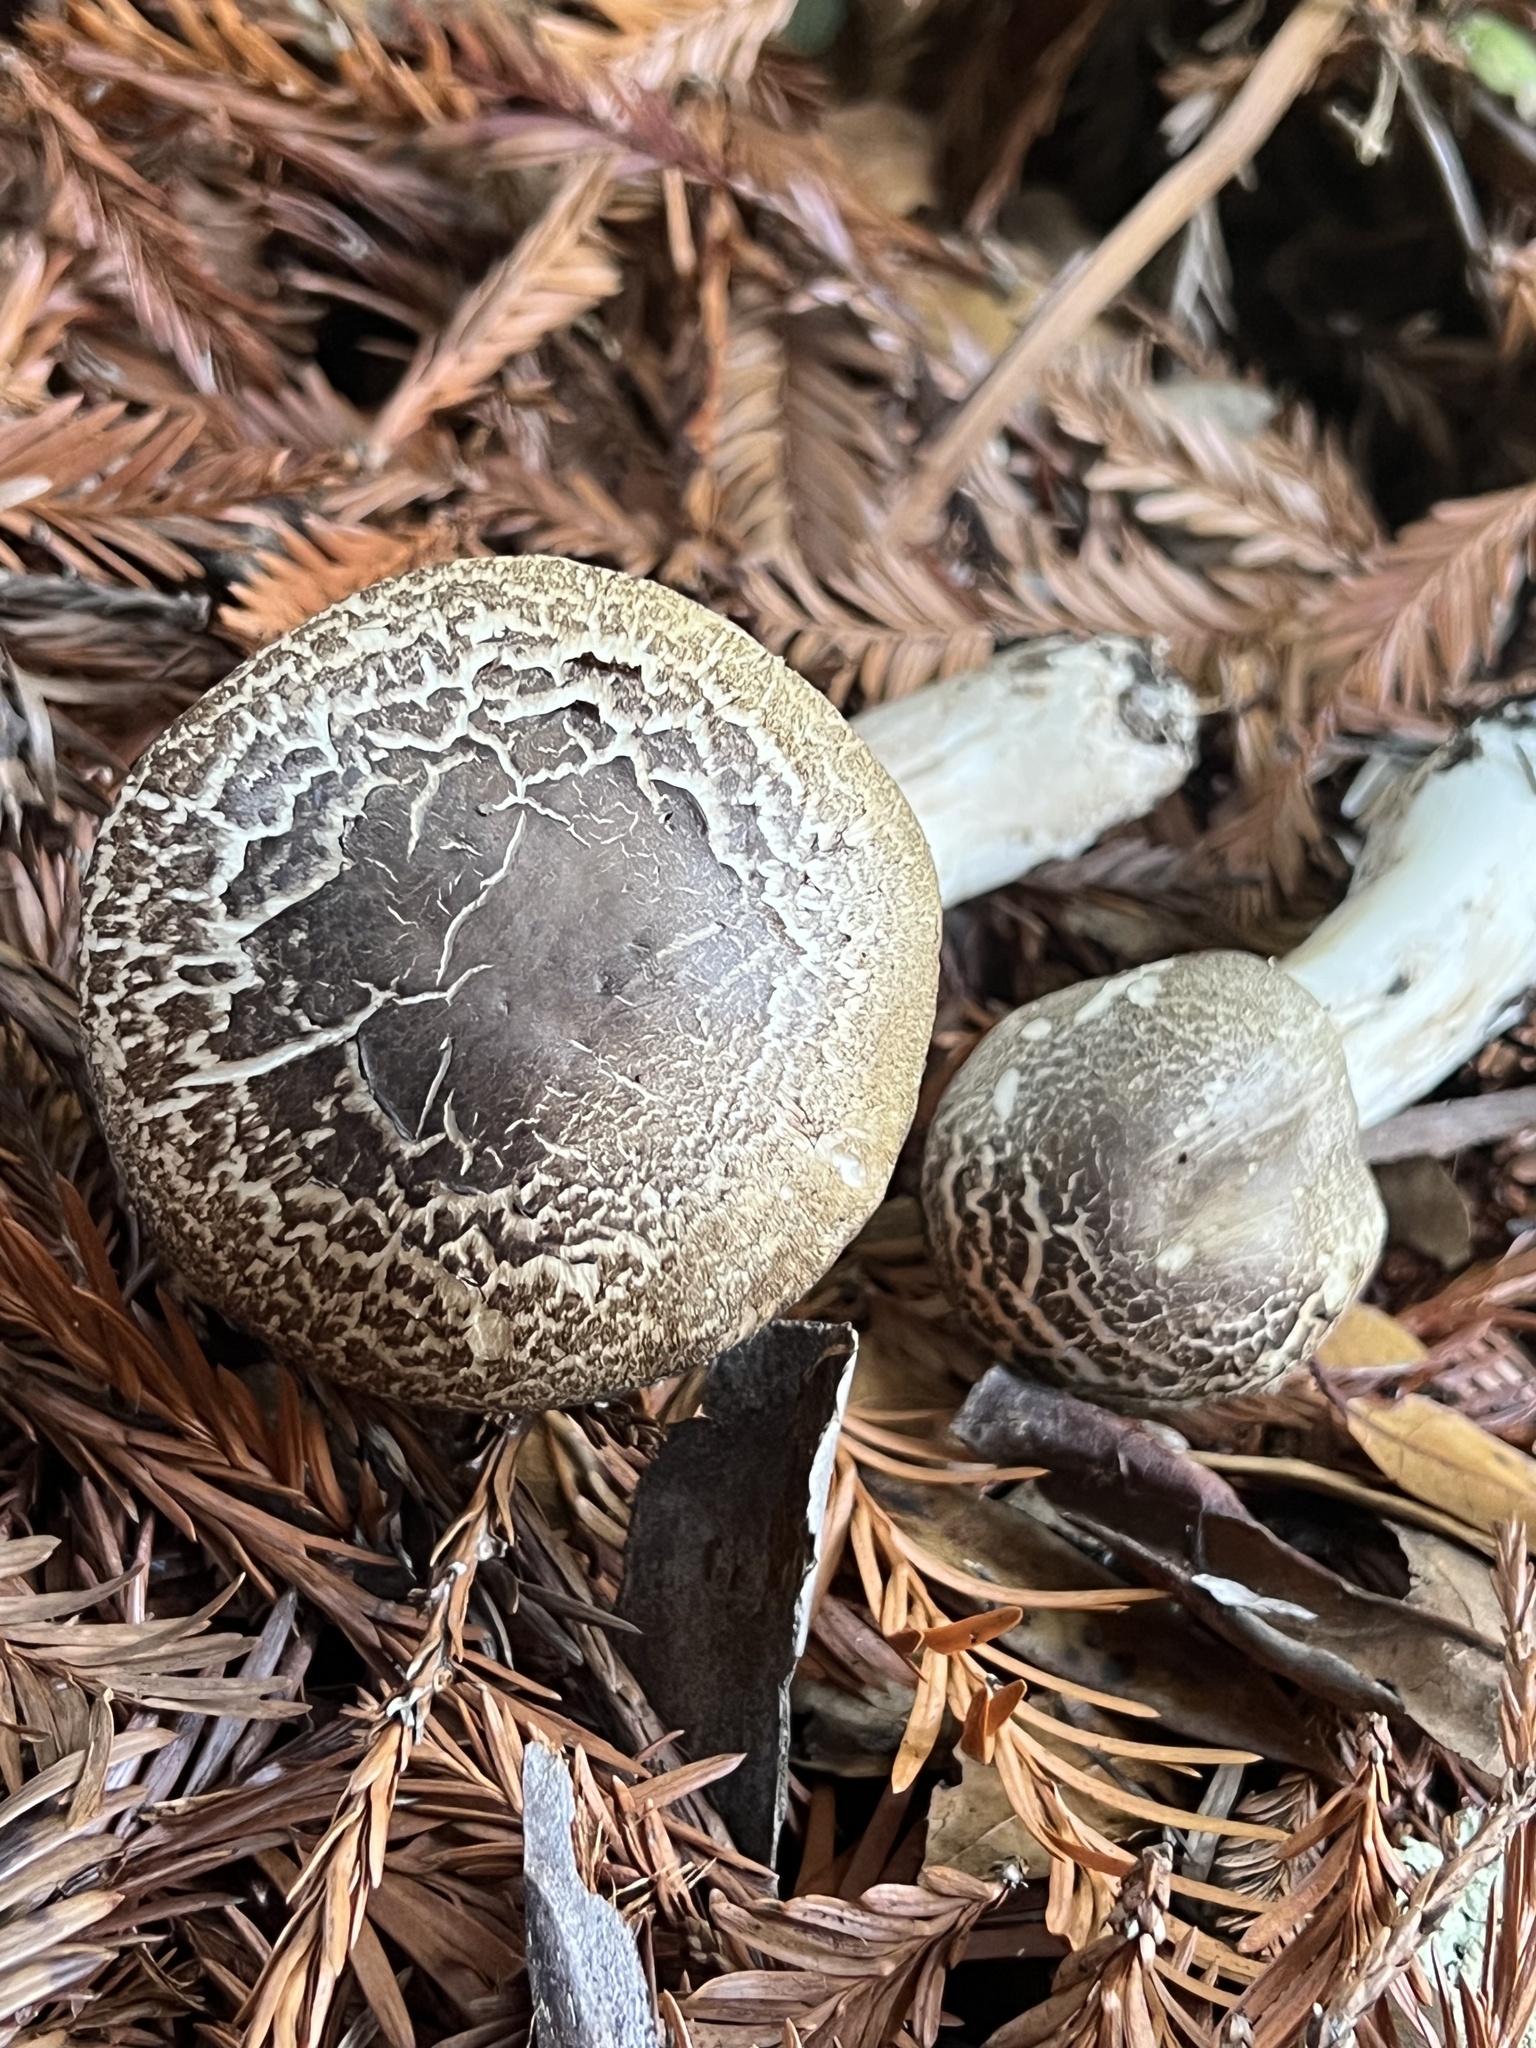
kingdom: Fungi
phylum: Basidiomycota
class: Agaricomycetes
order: Agaricales
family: Agaricaceae
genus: Agaricus
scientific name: Agaricus deardorffensis
